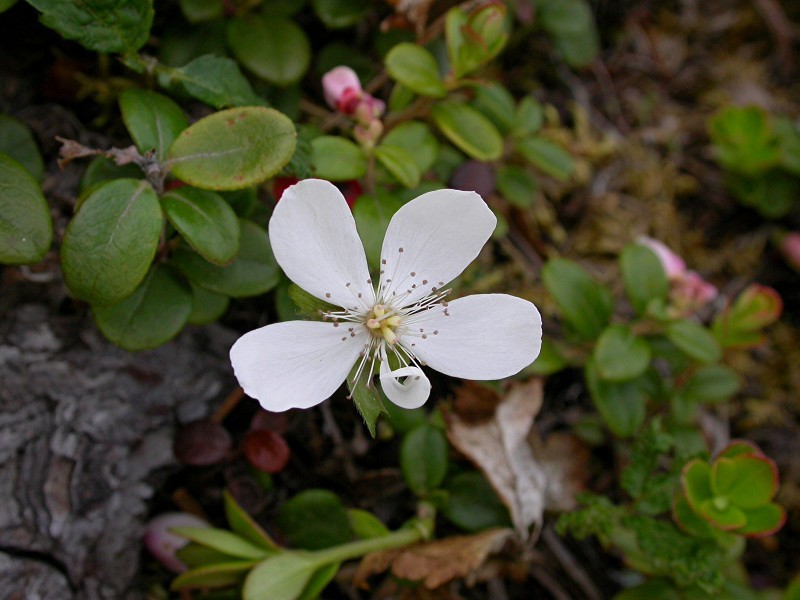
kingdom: Plantae
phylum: Tracheophyta
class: Magnoliopsida
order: Rosales
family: Rosaceae
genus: Rubus
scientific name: Rubus pedatus
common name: Creeping raspberry
